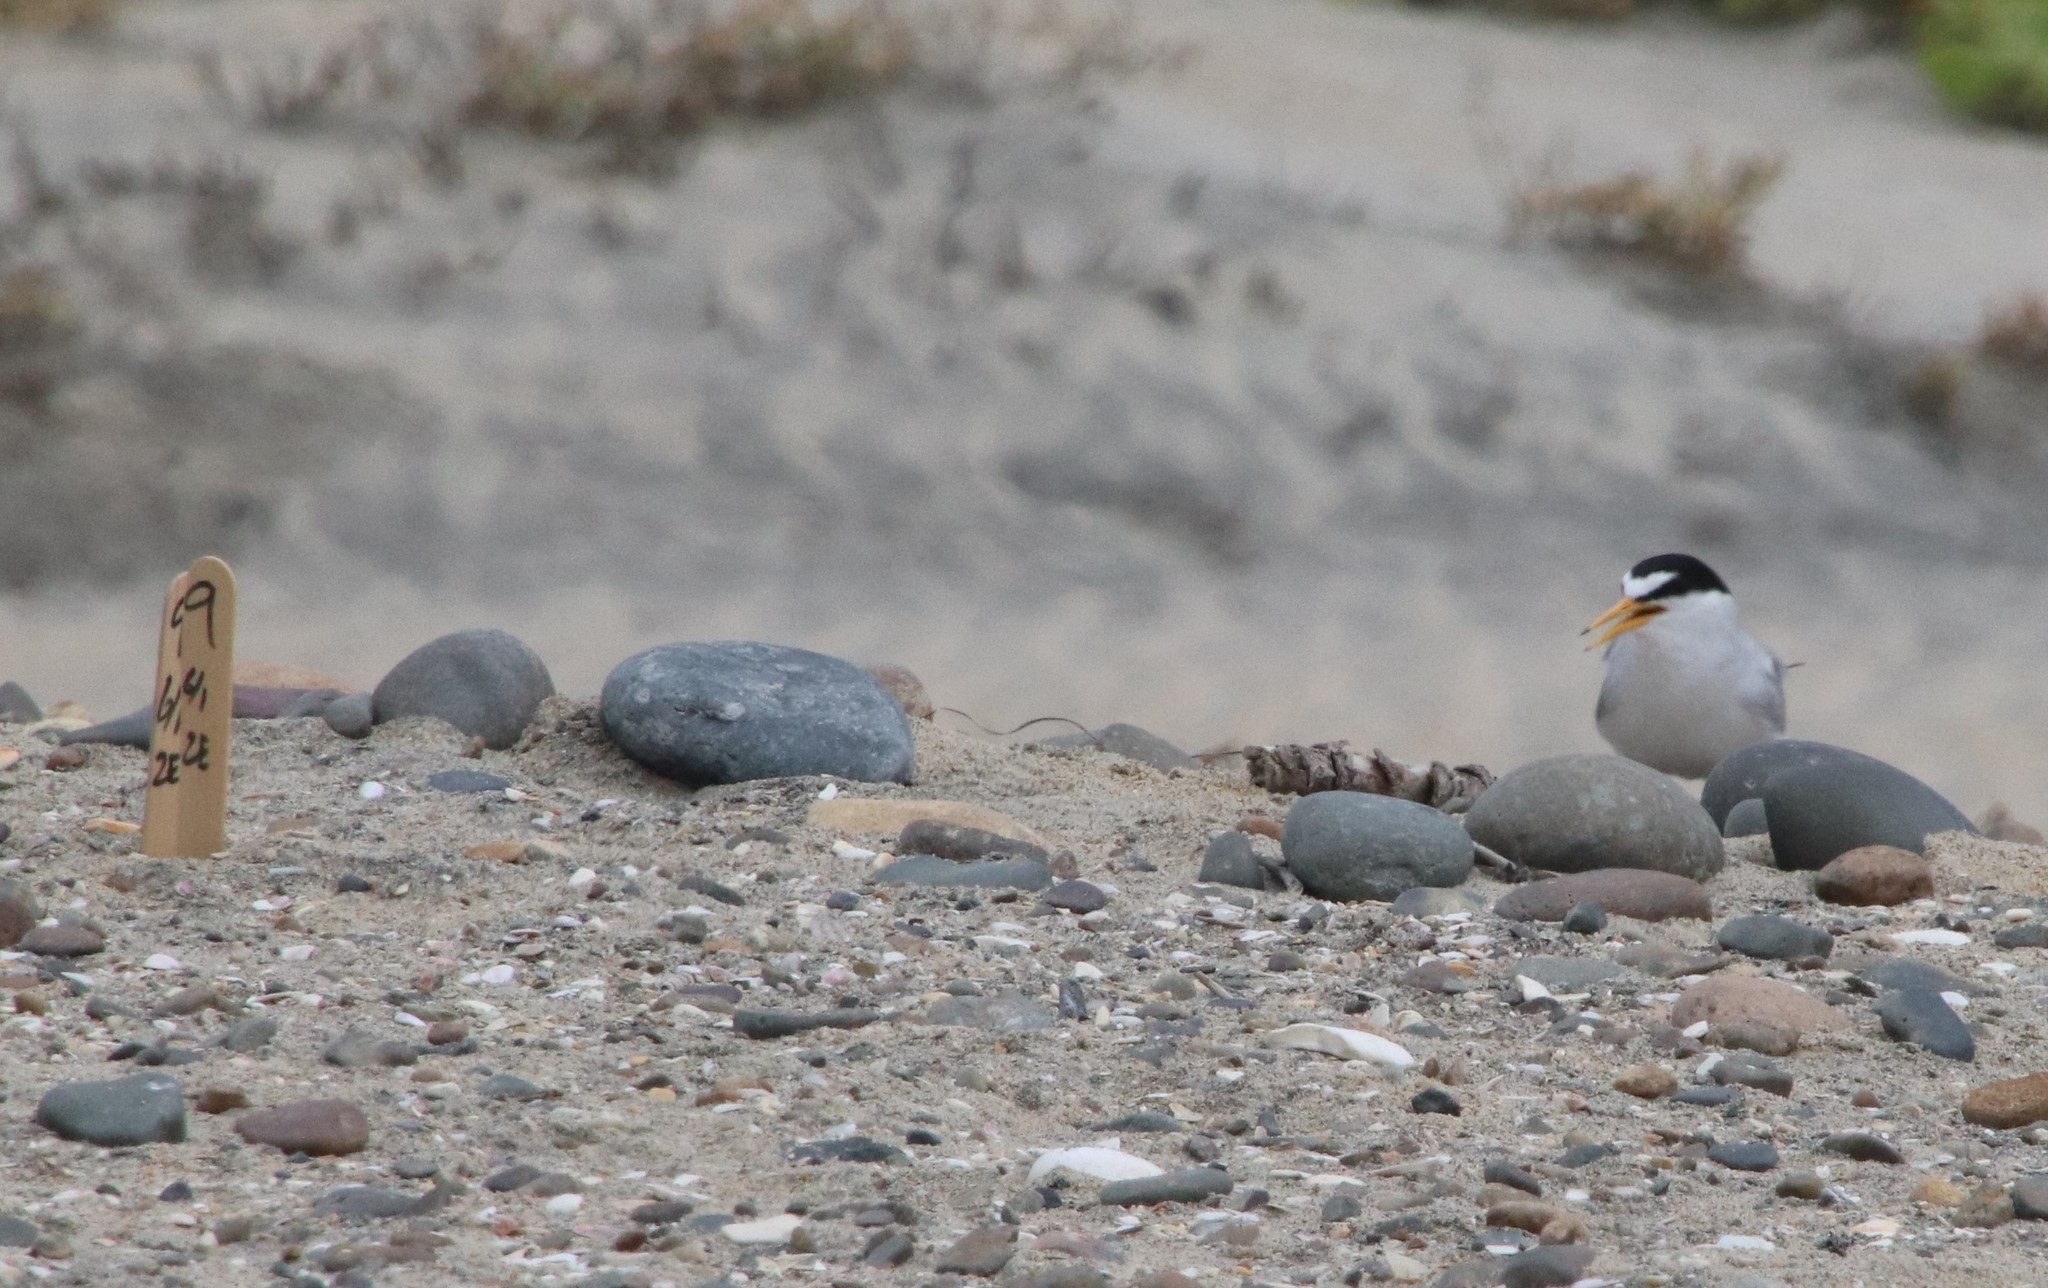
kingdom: Animalia
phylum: Chordata
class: Aves
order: Charadriiformes
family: Laridae
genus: Sternula
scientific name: Sternula antillarum
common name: Least tern
